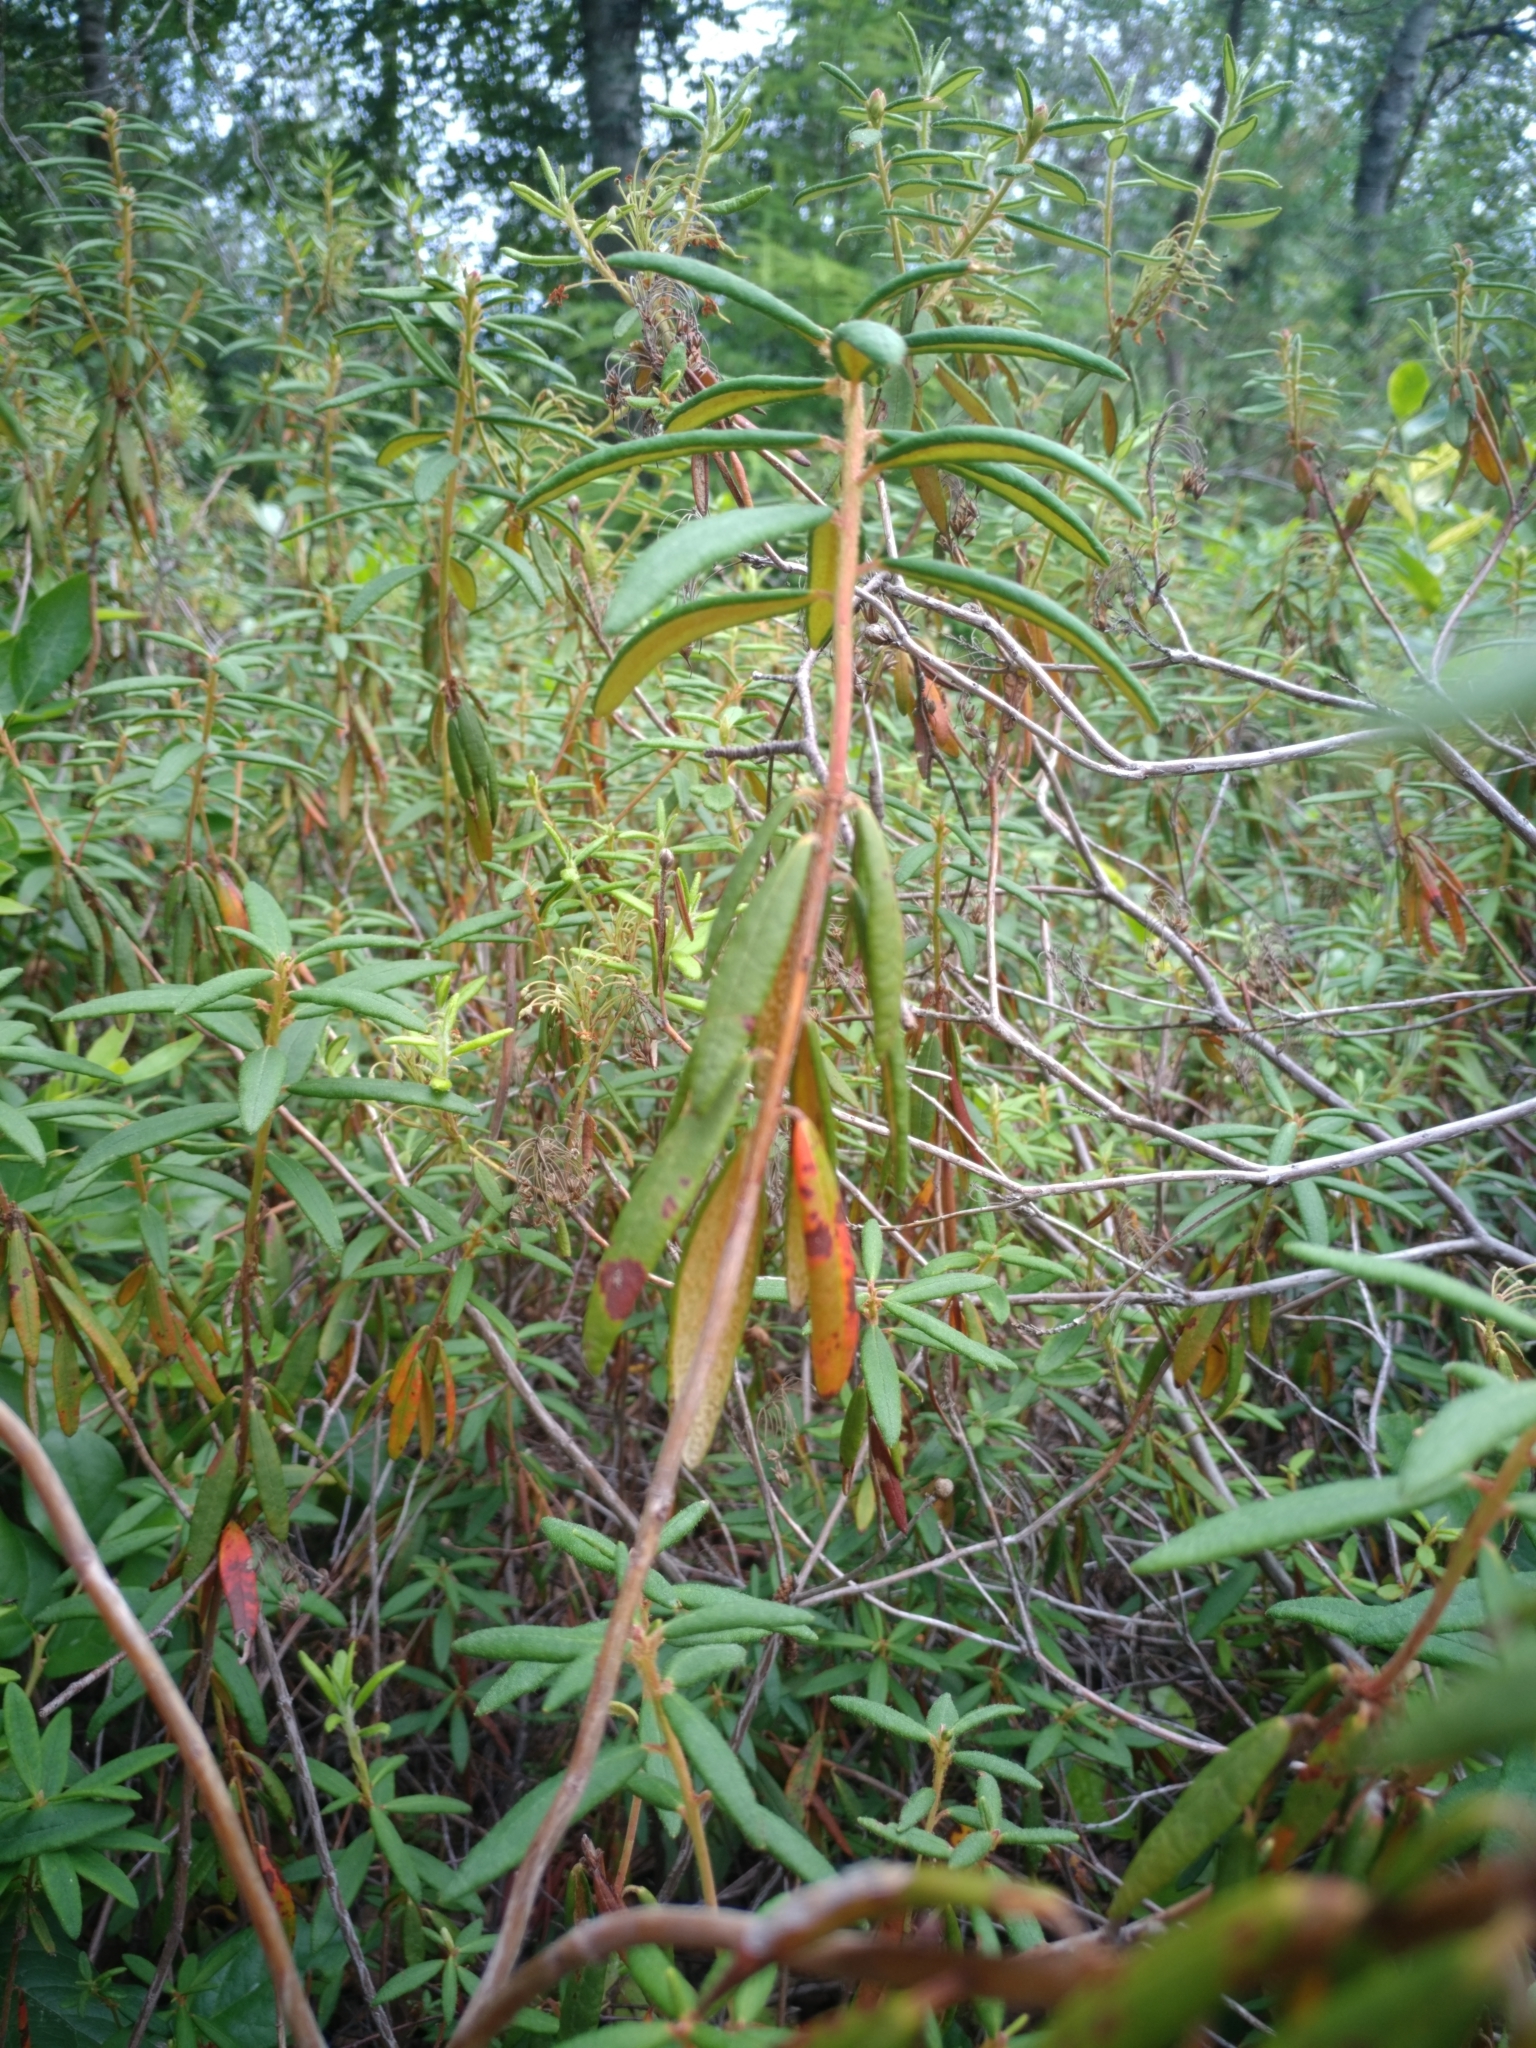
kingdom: Plantae
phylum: Tracheophyta
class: Magnoliopsida
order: Ericales
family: Ericaceae
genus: Rhododendron
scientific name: Rhododendron groenlandicum
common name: Bog labrador tea
